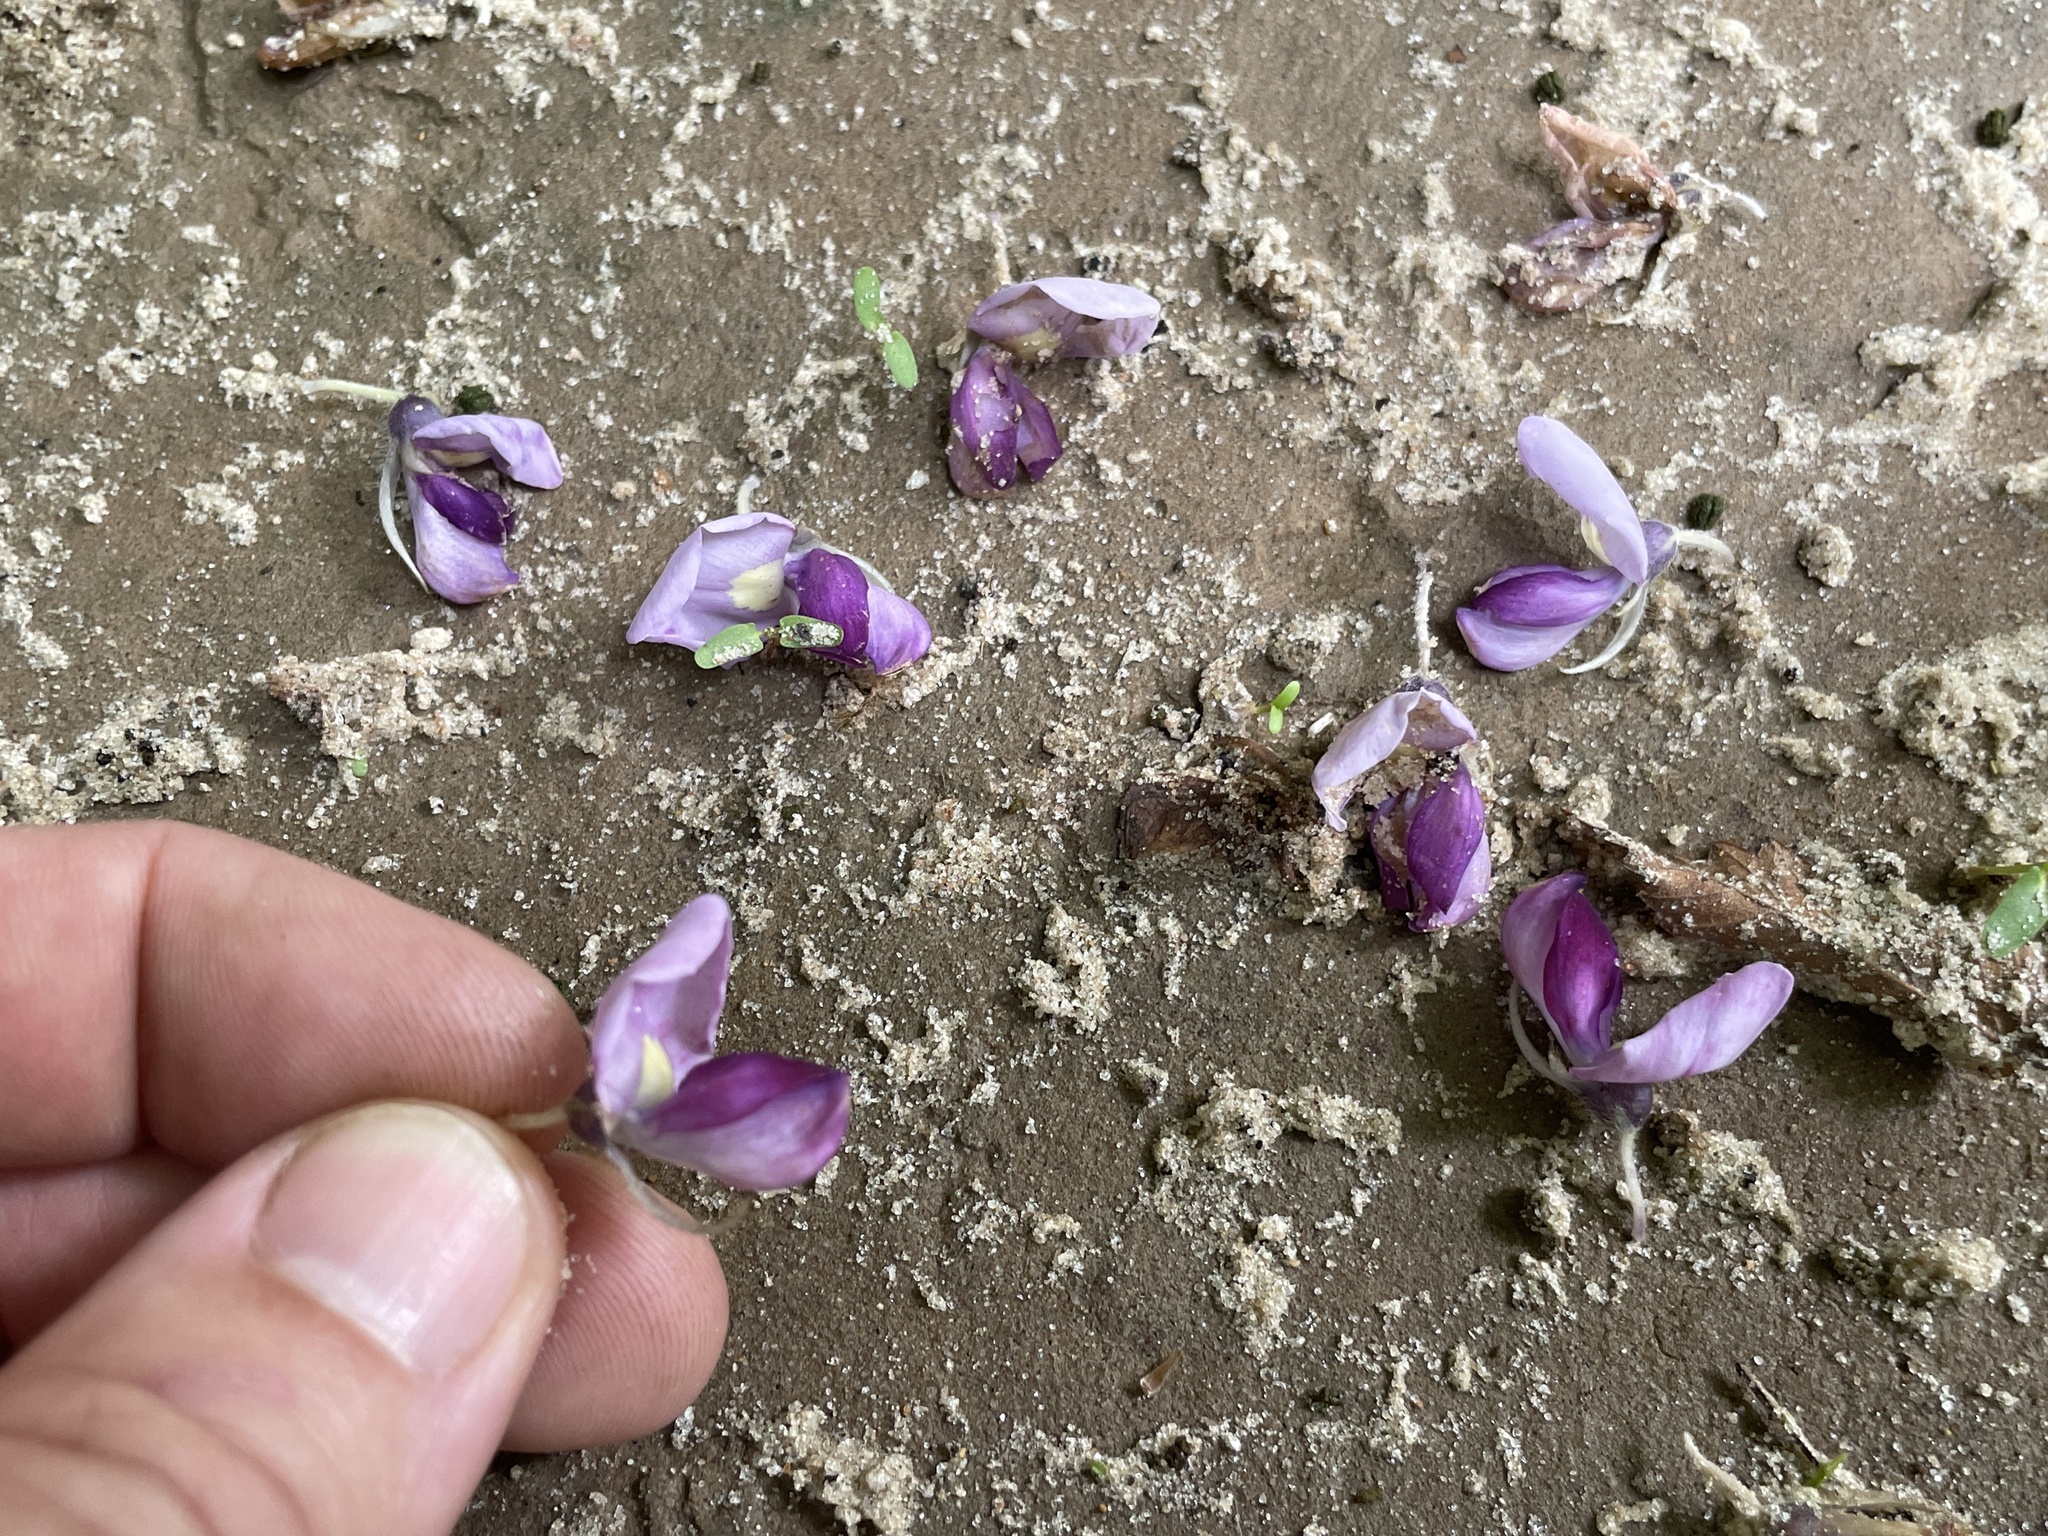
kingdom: Plantae
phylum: Tracheophyta
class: Magnoliopsida
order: Fabales
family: Fabaceae
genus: Pueraria
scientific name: Pueraria montana
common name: Kudzu
